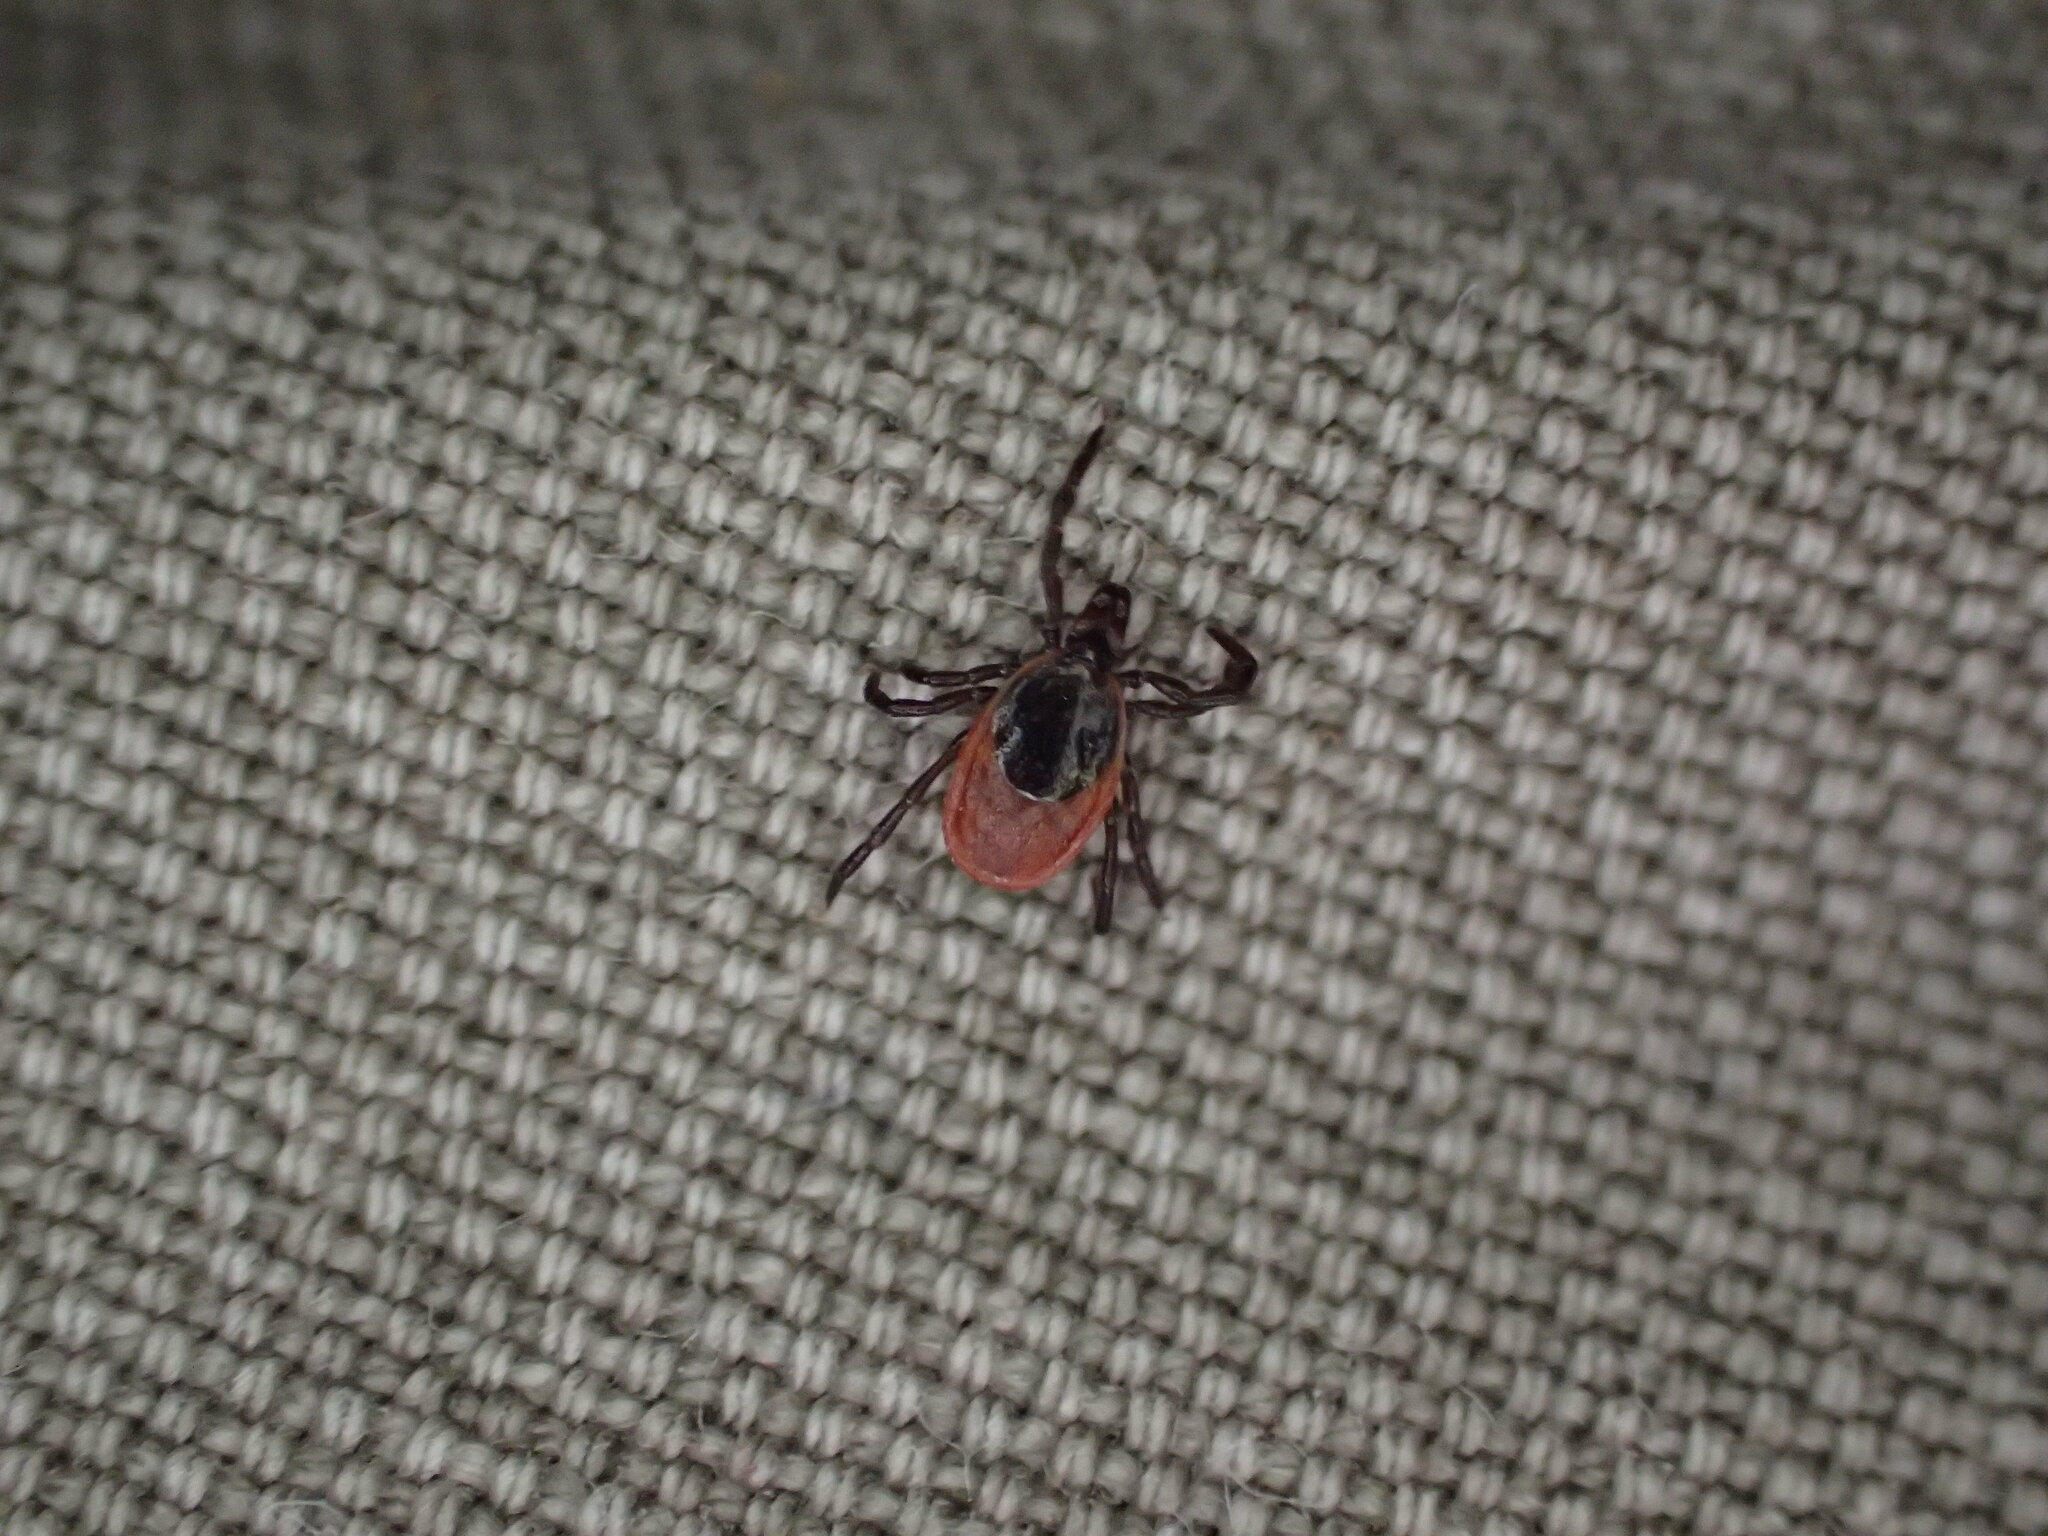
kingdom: Animalia
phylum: Arthropoda
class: Arachnida
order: Ixodida
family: Ixodidae
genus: Ixodes
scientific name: Ixodes scapularis
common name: Black legged tick
